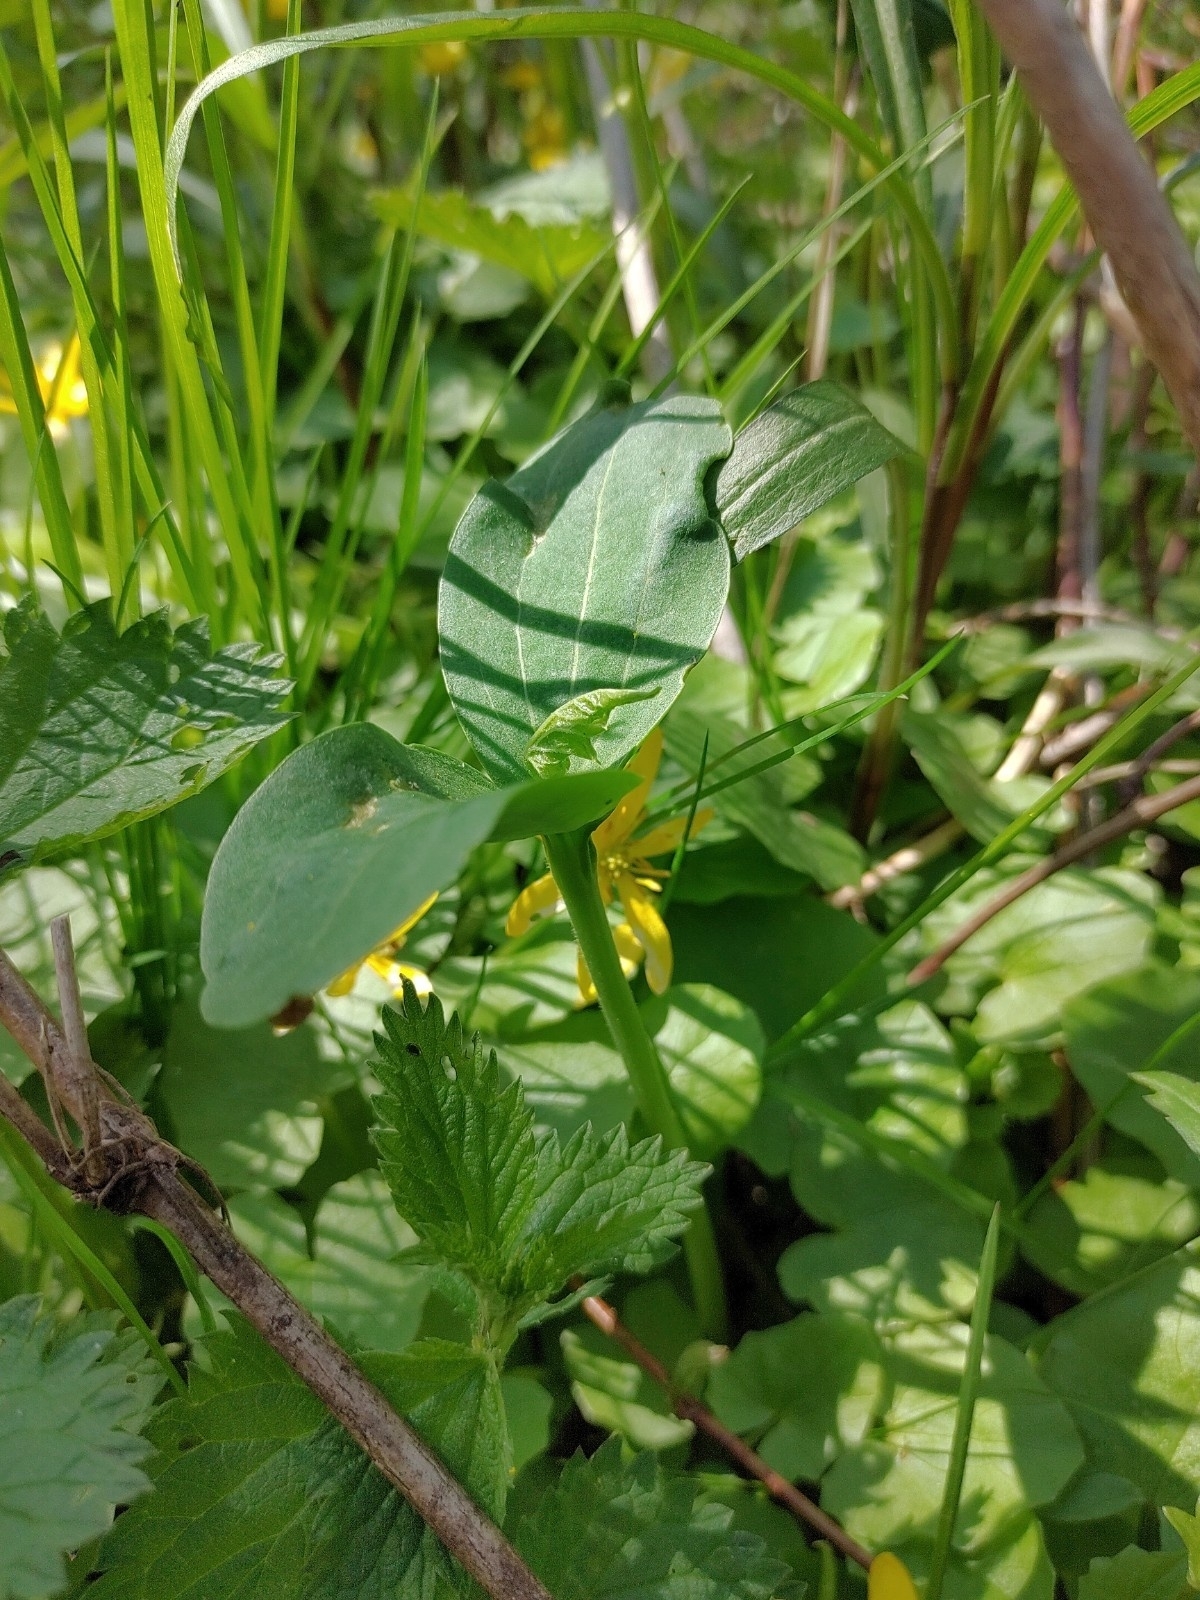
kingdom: Plantae
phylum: Tracheophyta
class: Magnoliopsida
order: Cucurbitales
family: Cucurbitaceae
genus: Echinocystis
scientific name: Echinocystis lobata
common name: Wild cucumber
